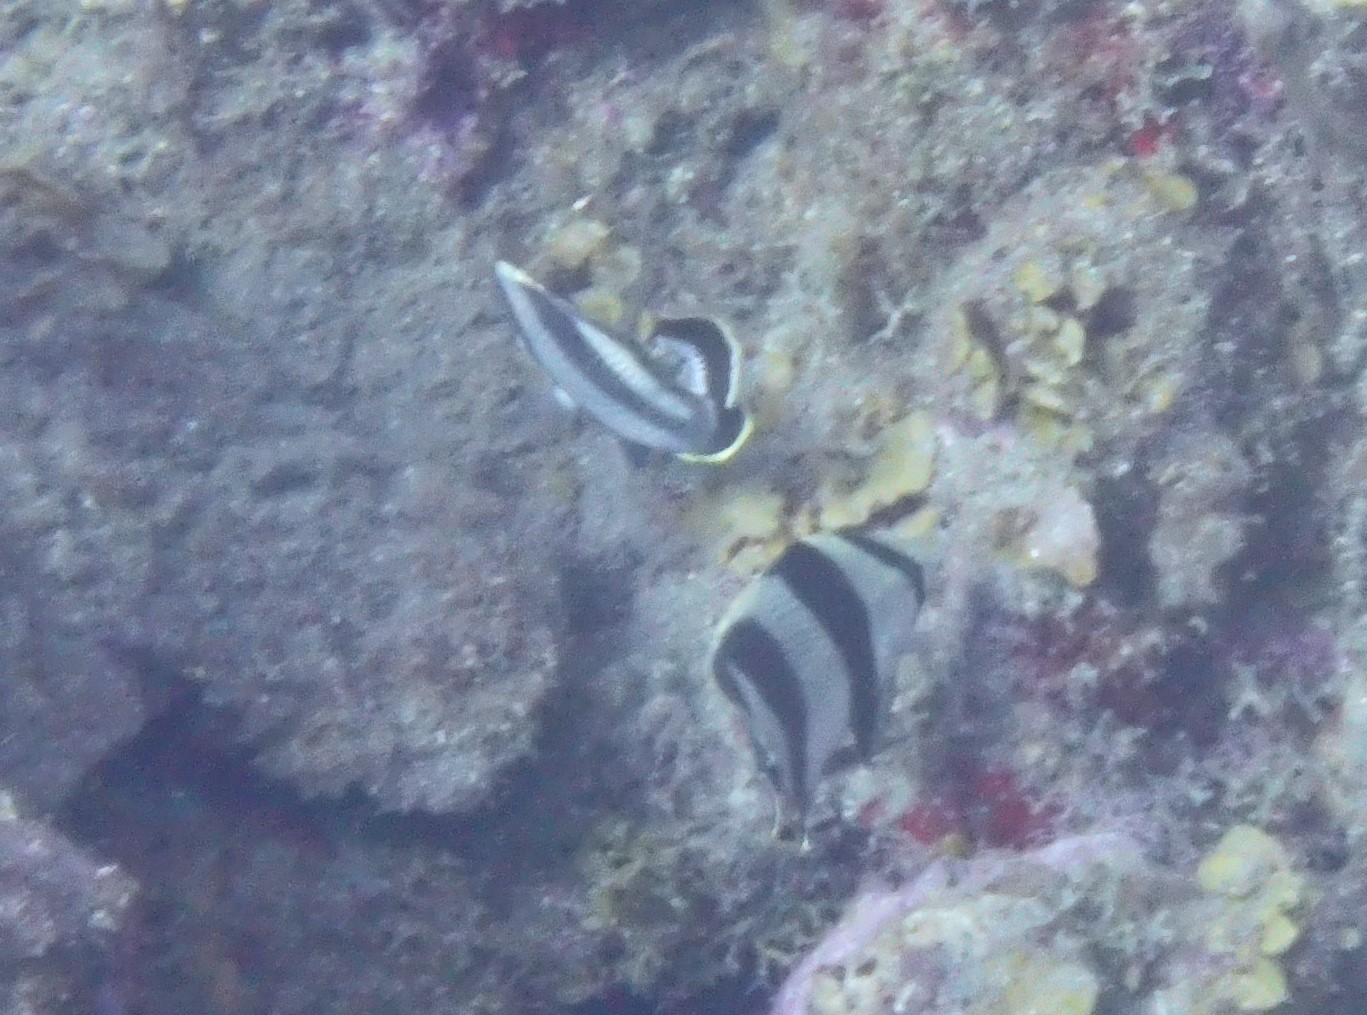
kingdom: Animalia
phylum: Chordata
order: Perciformes
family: Chaetodontidae
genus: Chaetodon
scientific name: Chaetodon striatus
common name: Banded butterflyfish
